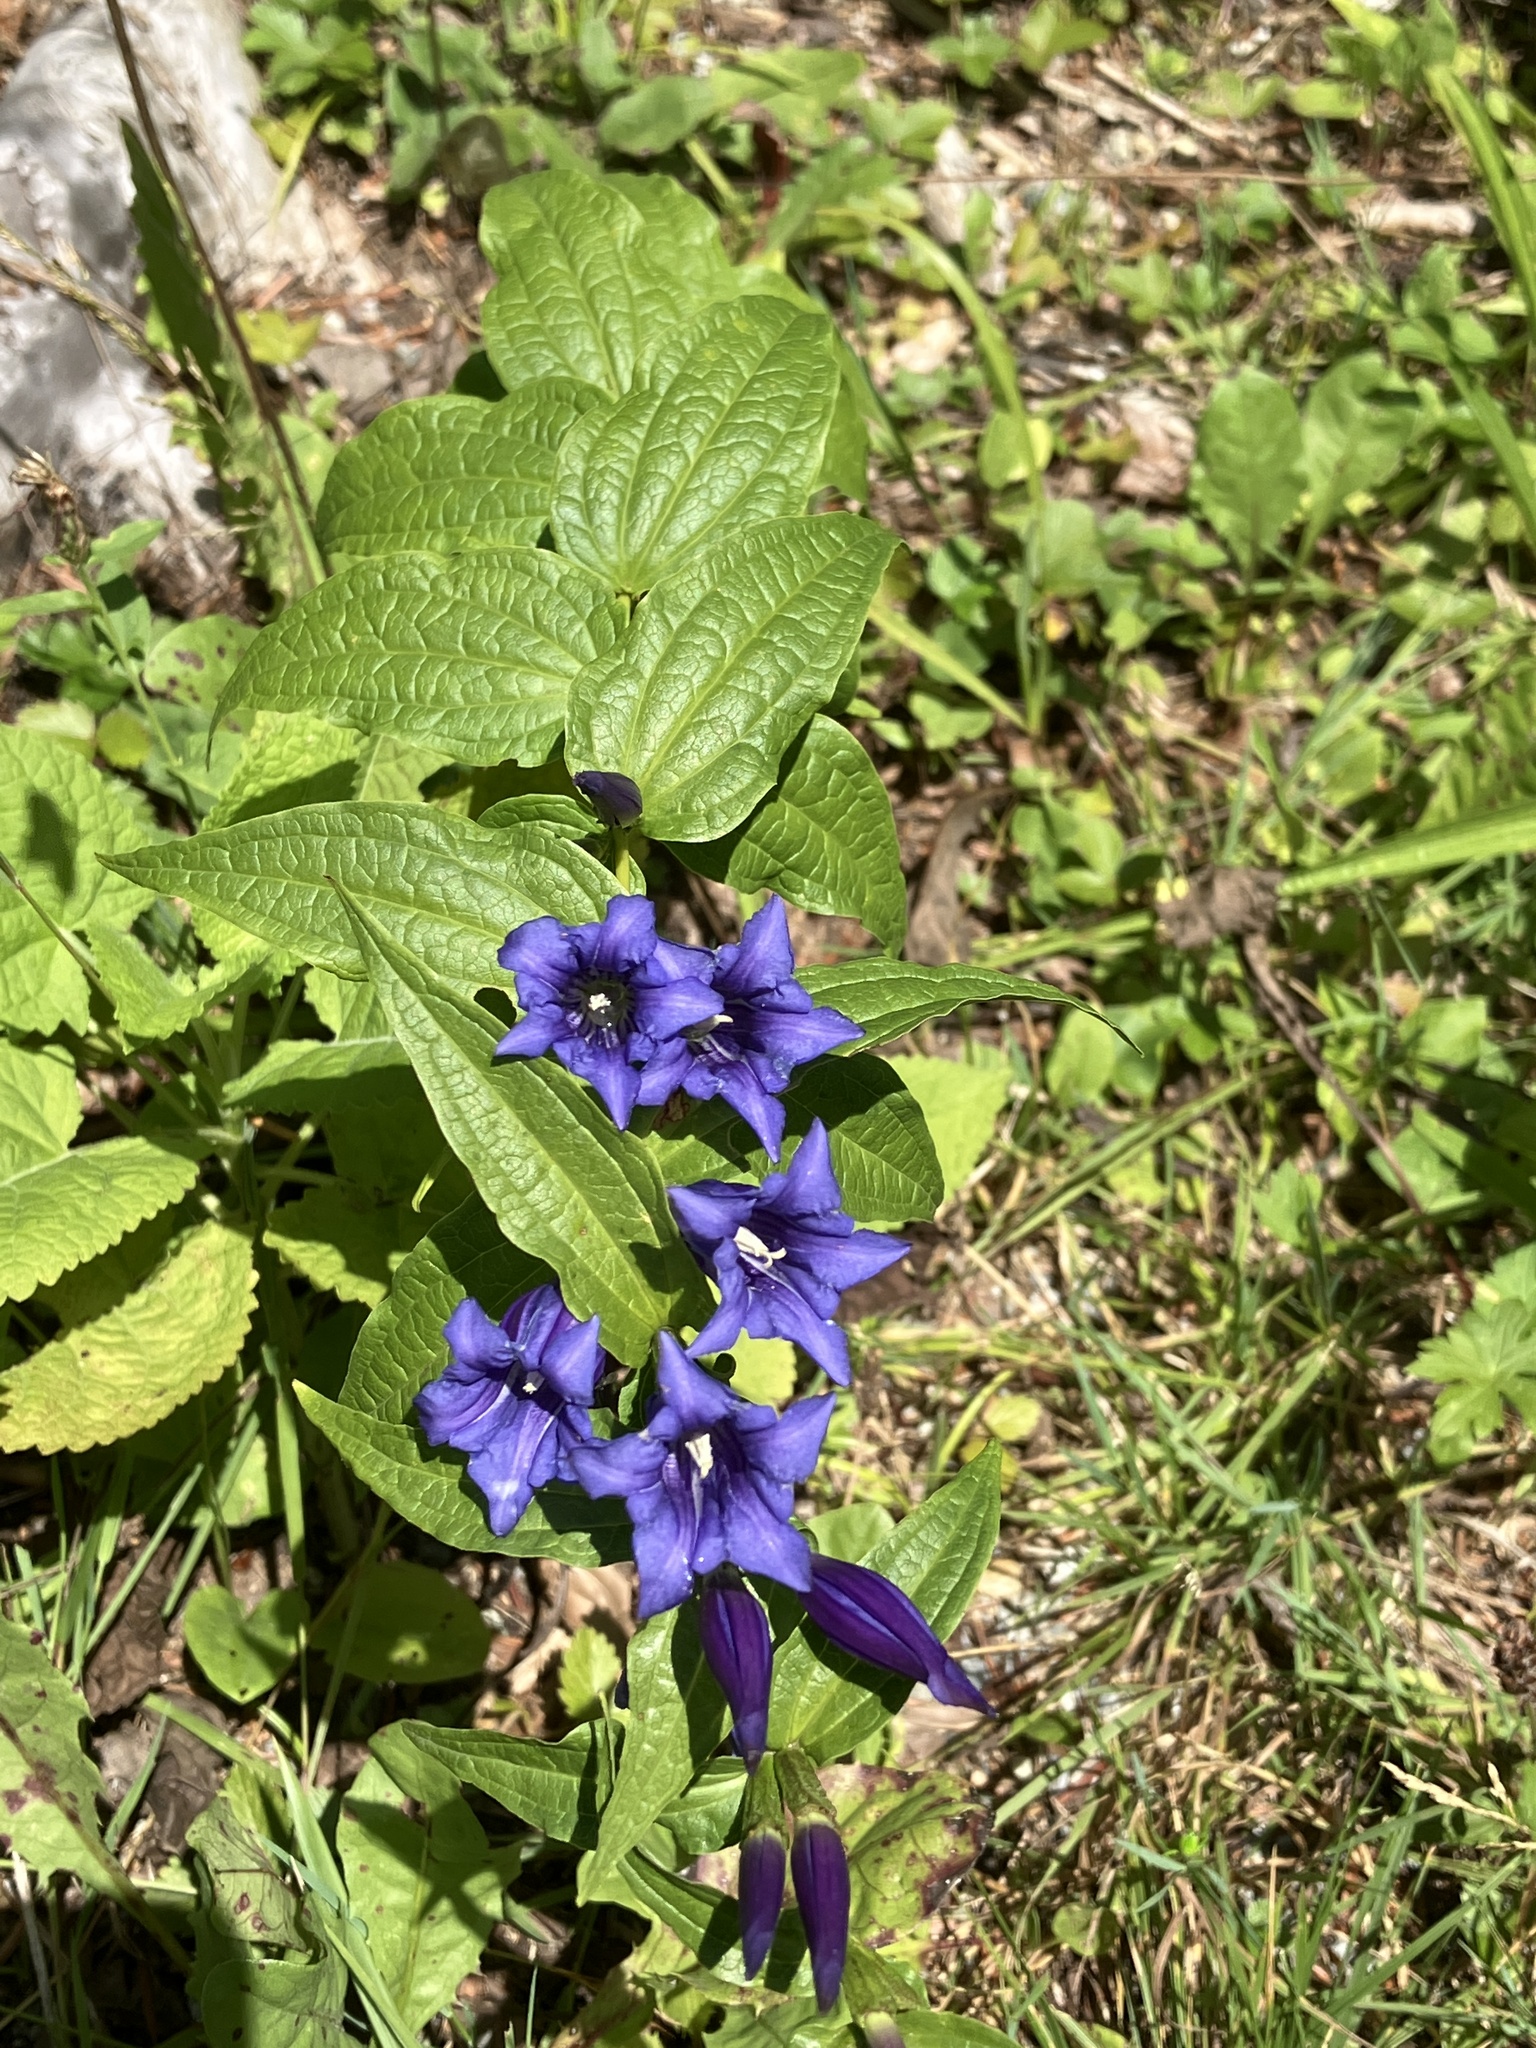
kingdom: Plantae
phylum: Tracheophyta
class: Magnoliopsida
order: Gentianales
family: Gentianaceae
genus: Gentiana
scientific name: Gentiana asclepiadea
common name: Willow gentian
